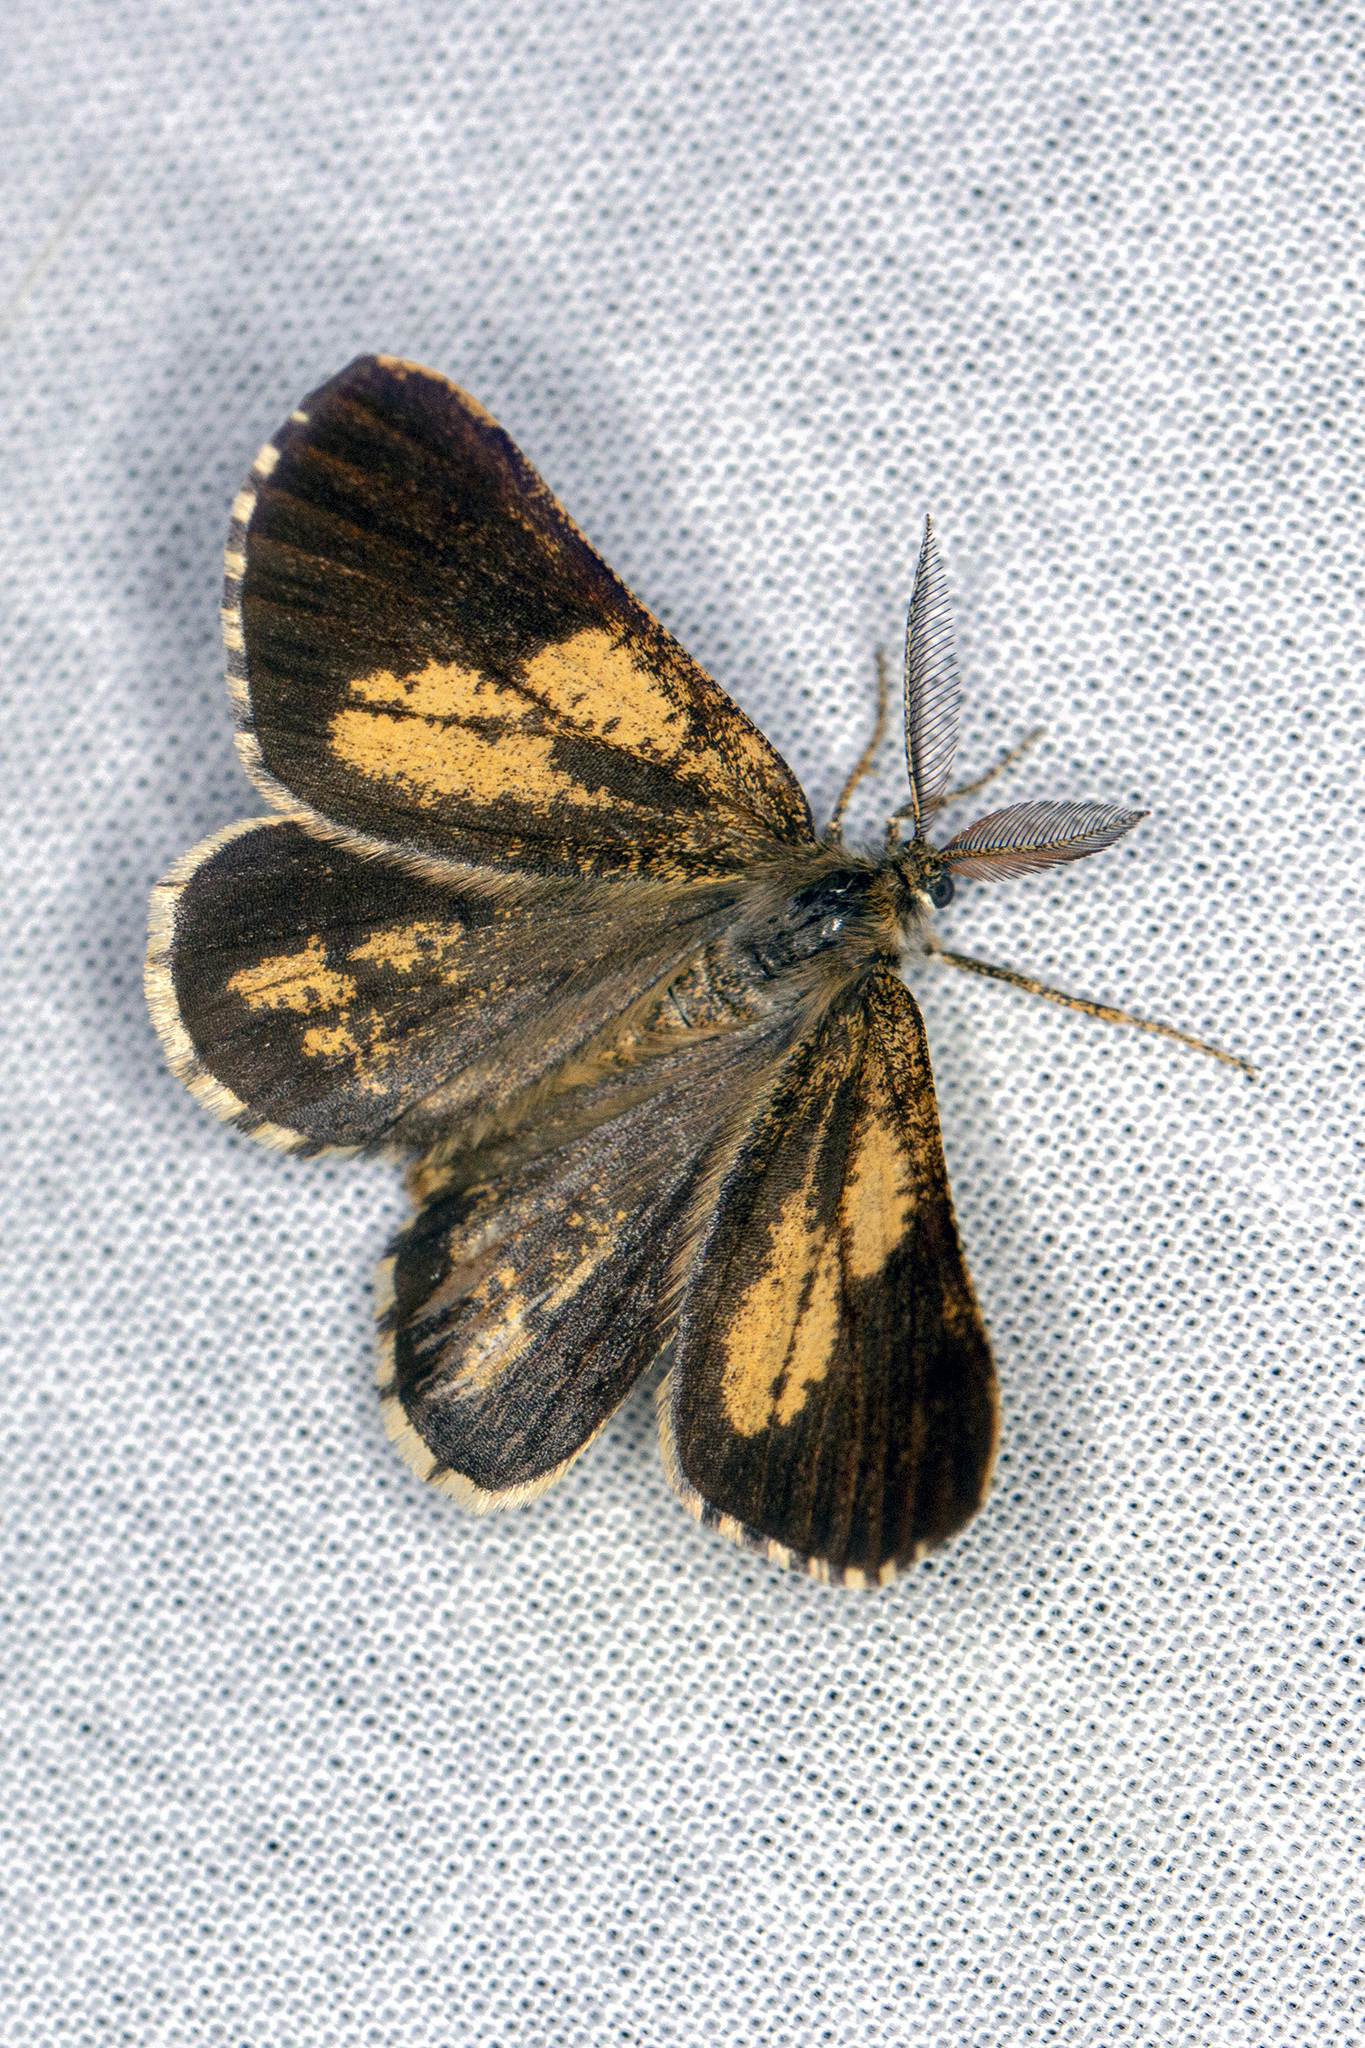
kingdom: Animalia
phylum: Arthropoda
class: Insecta
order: Lepidoptera
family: Geometridae
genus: Bupalus
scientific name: Bupalus piniaria
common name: Bordered white
